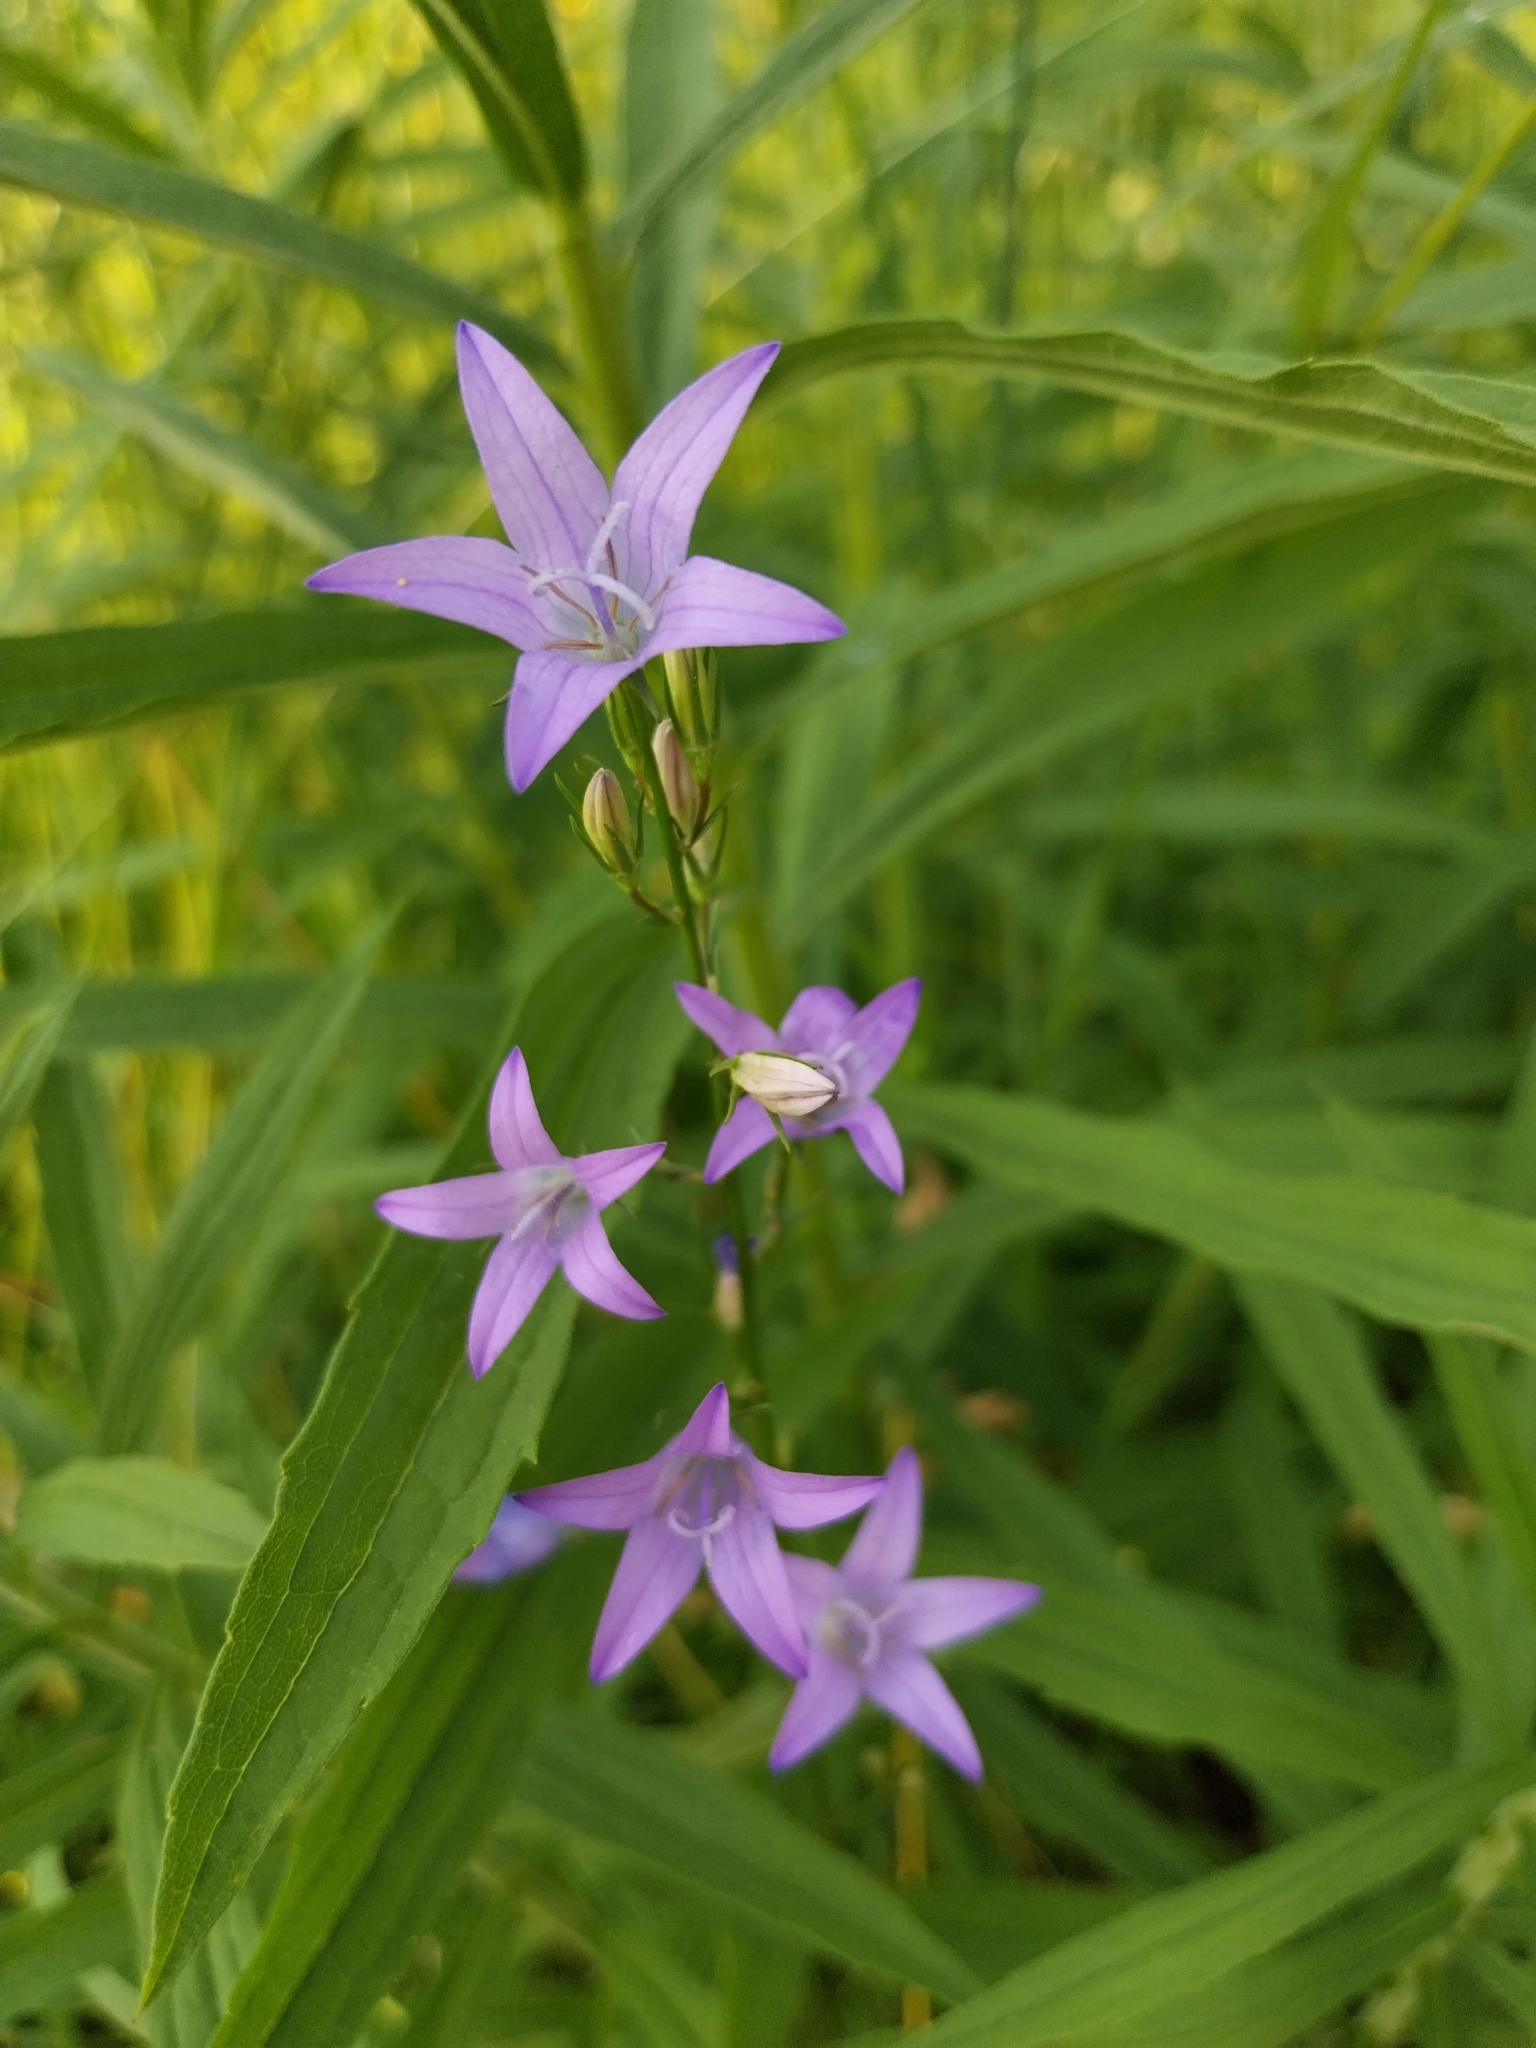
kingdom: Plantae
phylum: Tracheophyta
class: Magnoliopsida
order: Asterales
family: Campanulaceae
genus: Campanula
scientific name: Campanula rapunculus
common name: Rampion bellflower
